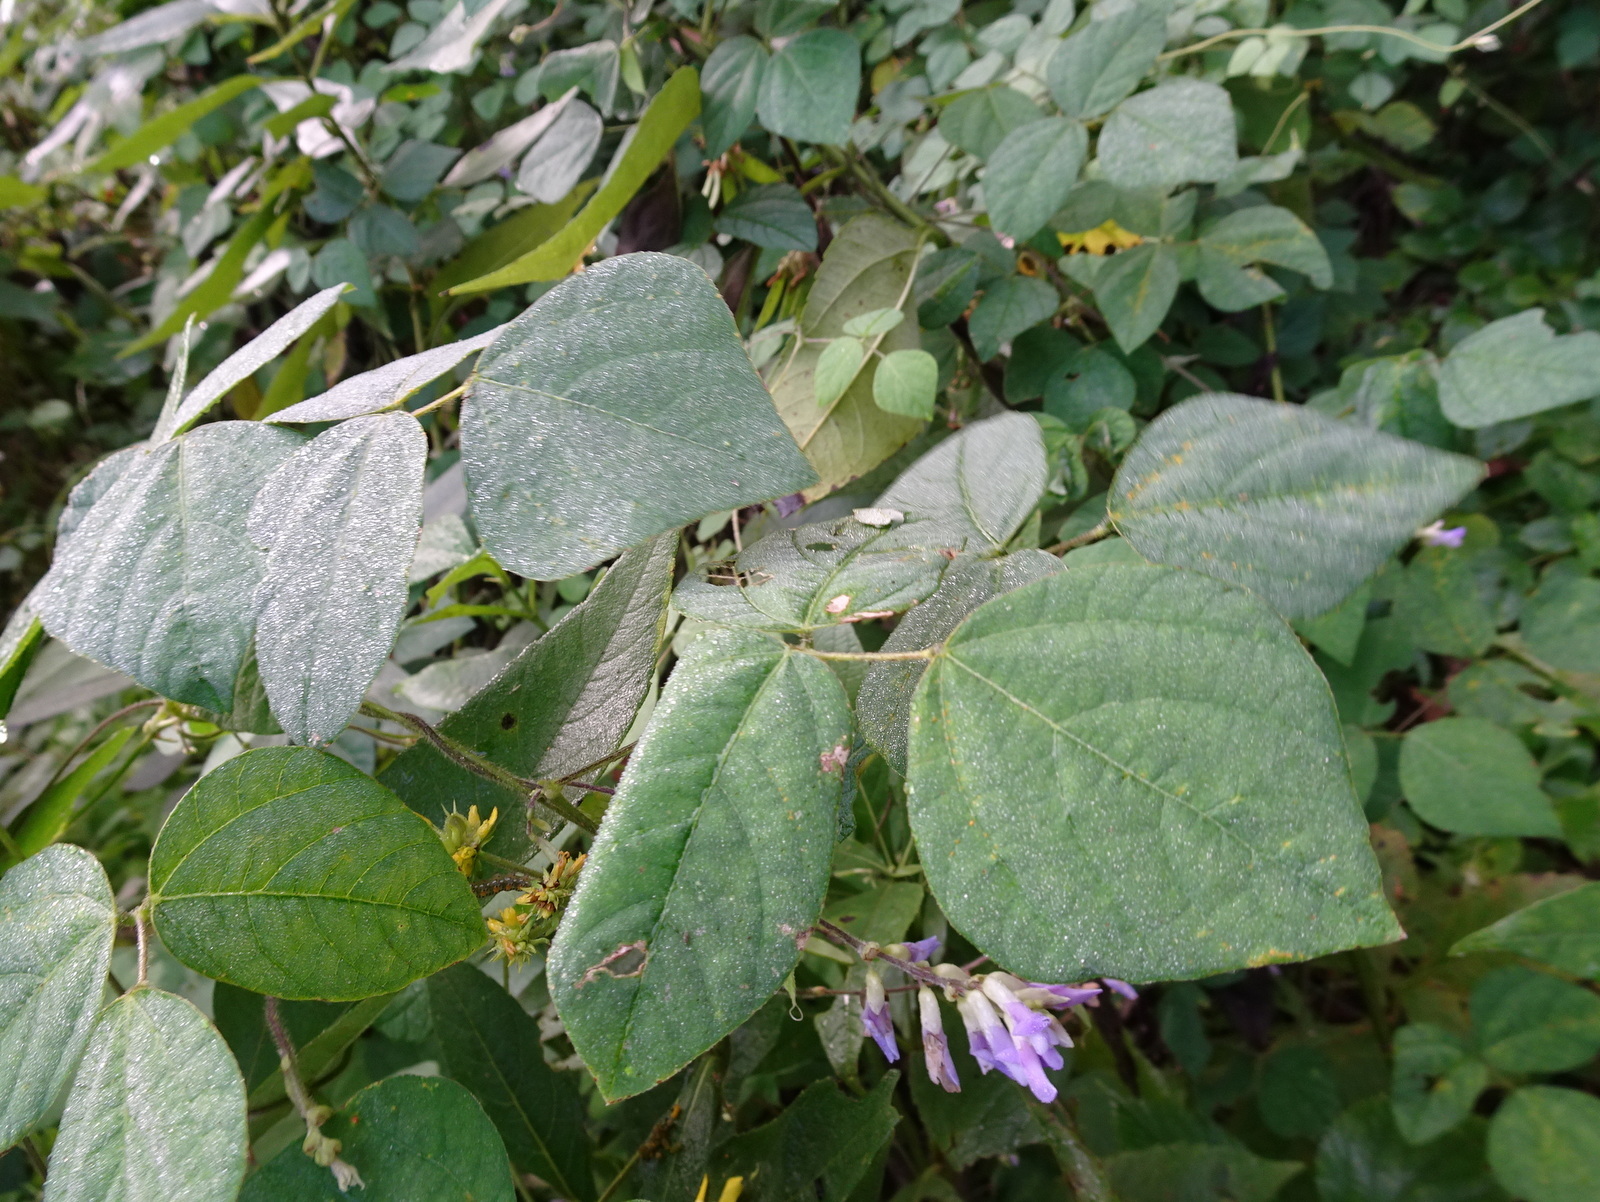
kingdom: Plantae
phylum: Tracheophyta
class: Magnoliopsida
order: Fabales
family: Fabaceae
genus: Amphicarpaea
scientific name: Amphicarpaea bracteata
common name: American hog peanut
